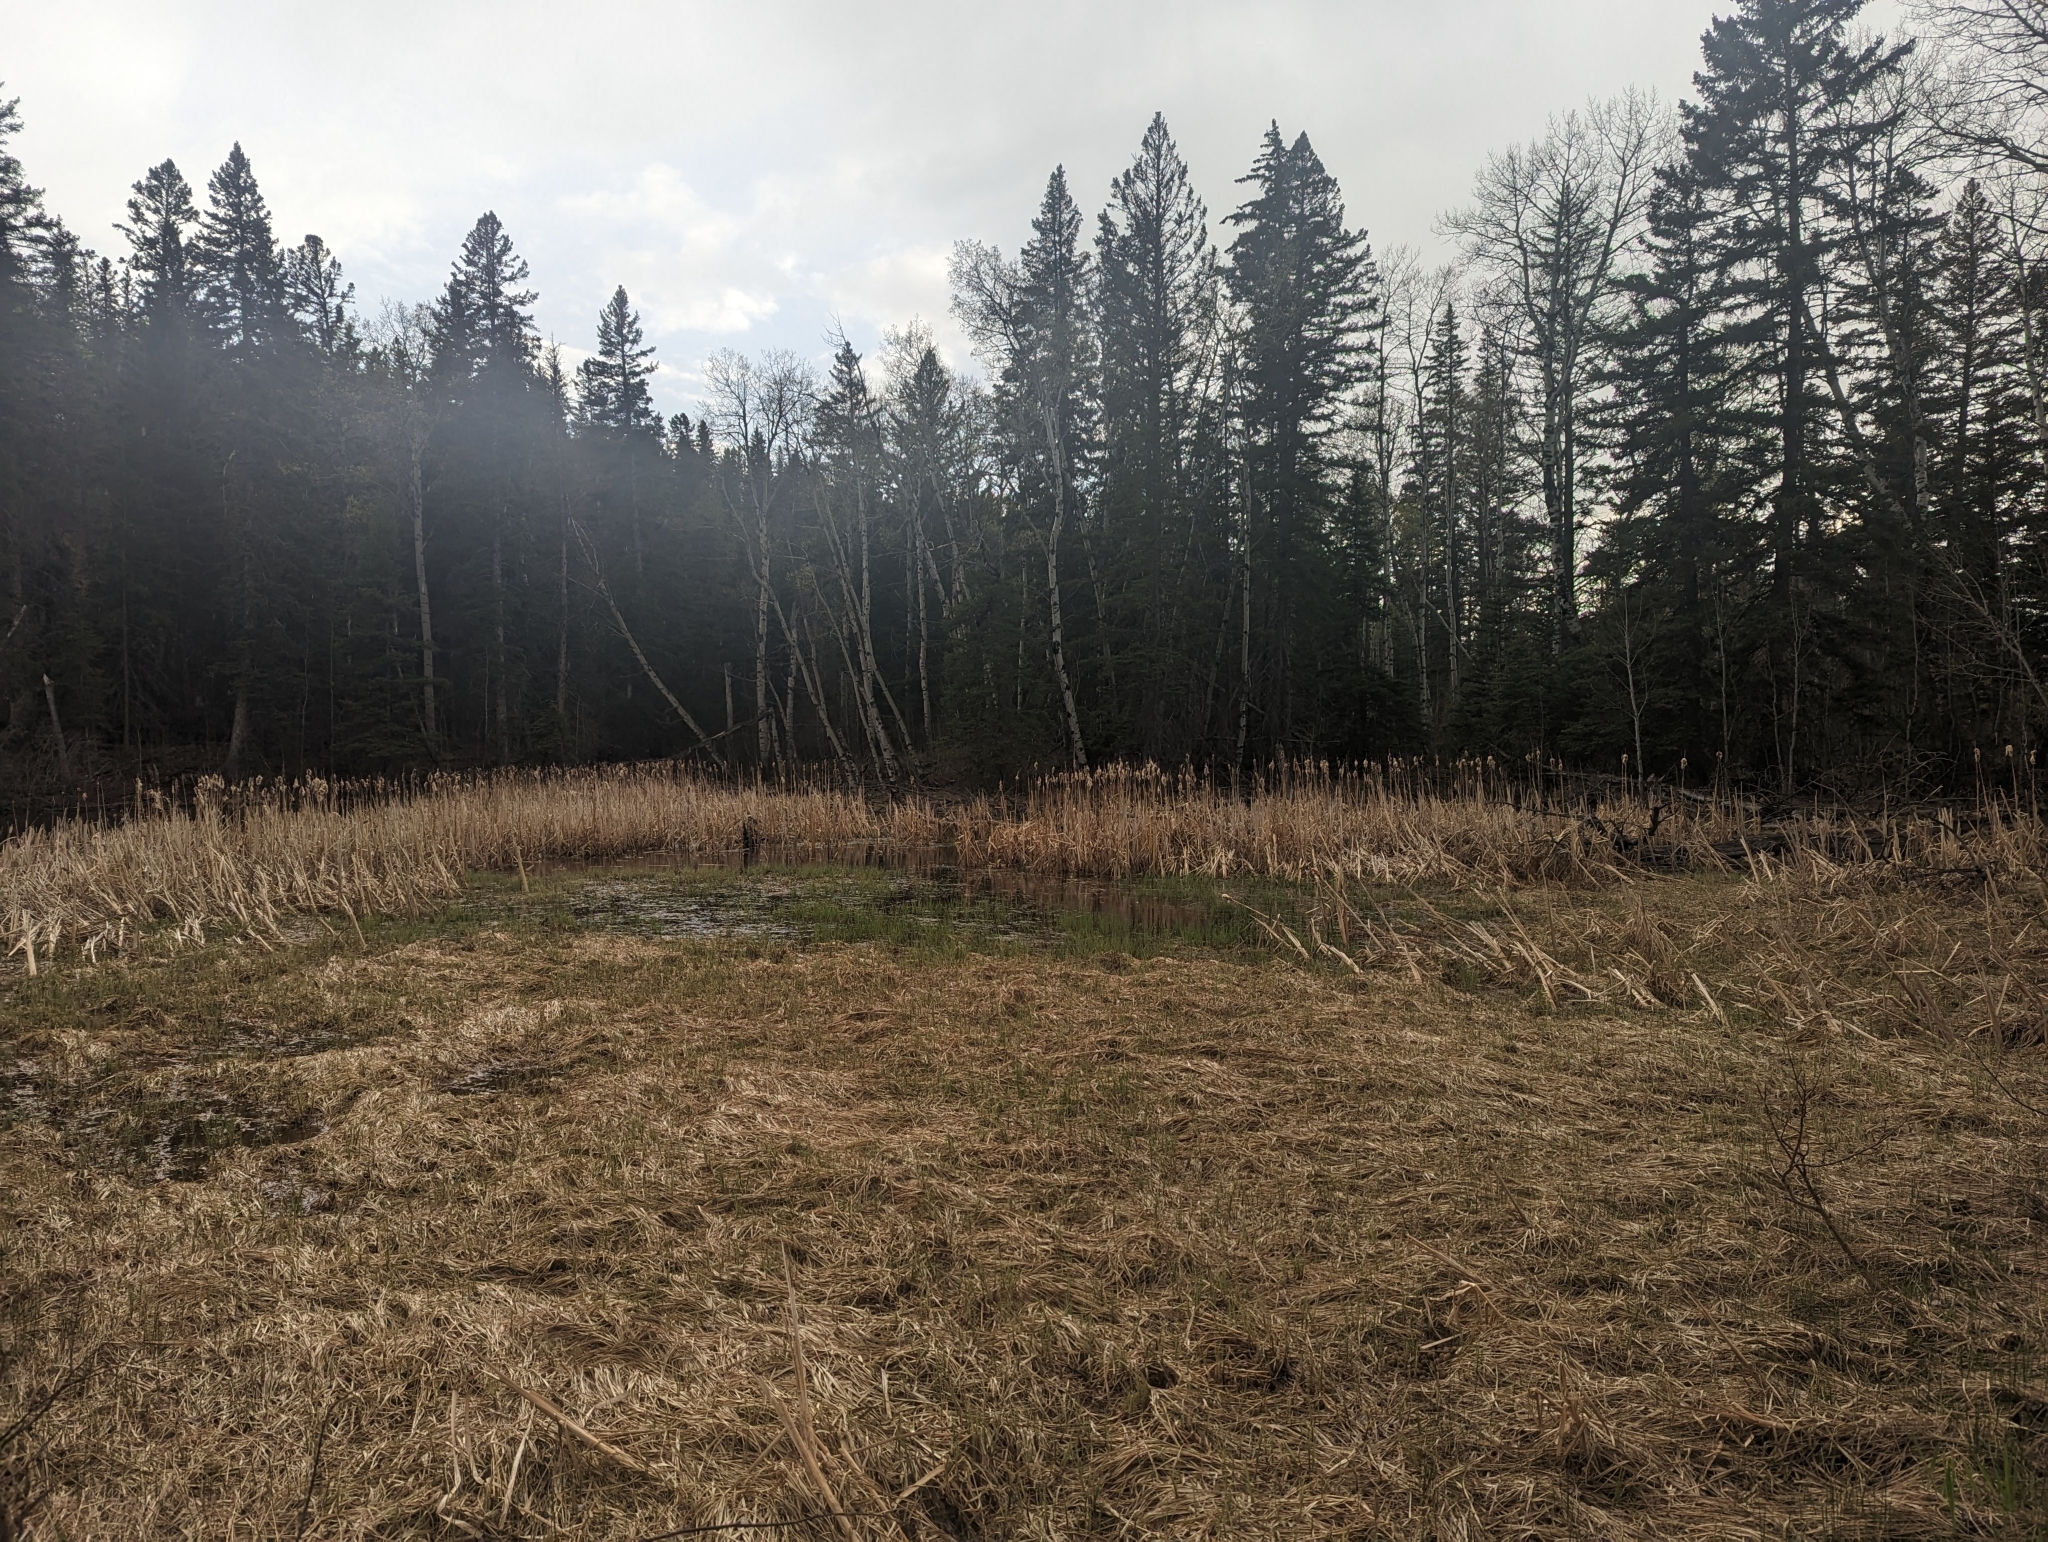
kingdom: Animalia
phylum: Chordata
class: Amphibia
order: Anura
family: Hylidae
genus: Pseudacris
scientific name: Pseudacris maculata
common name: Boreal chorus frog
